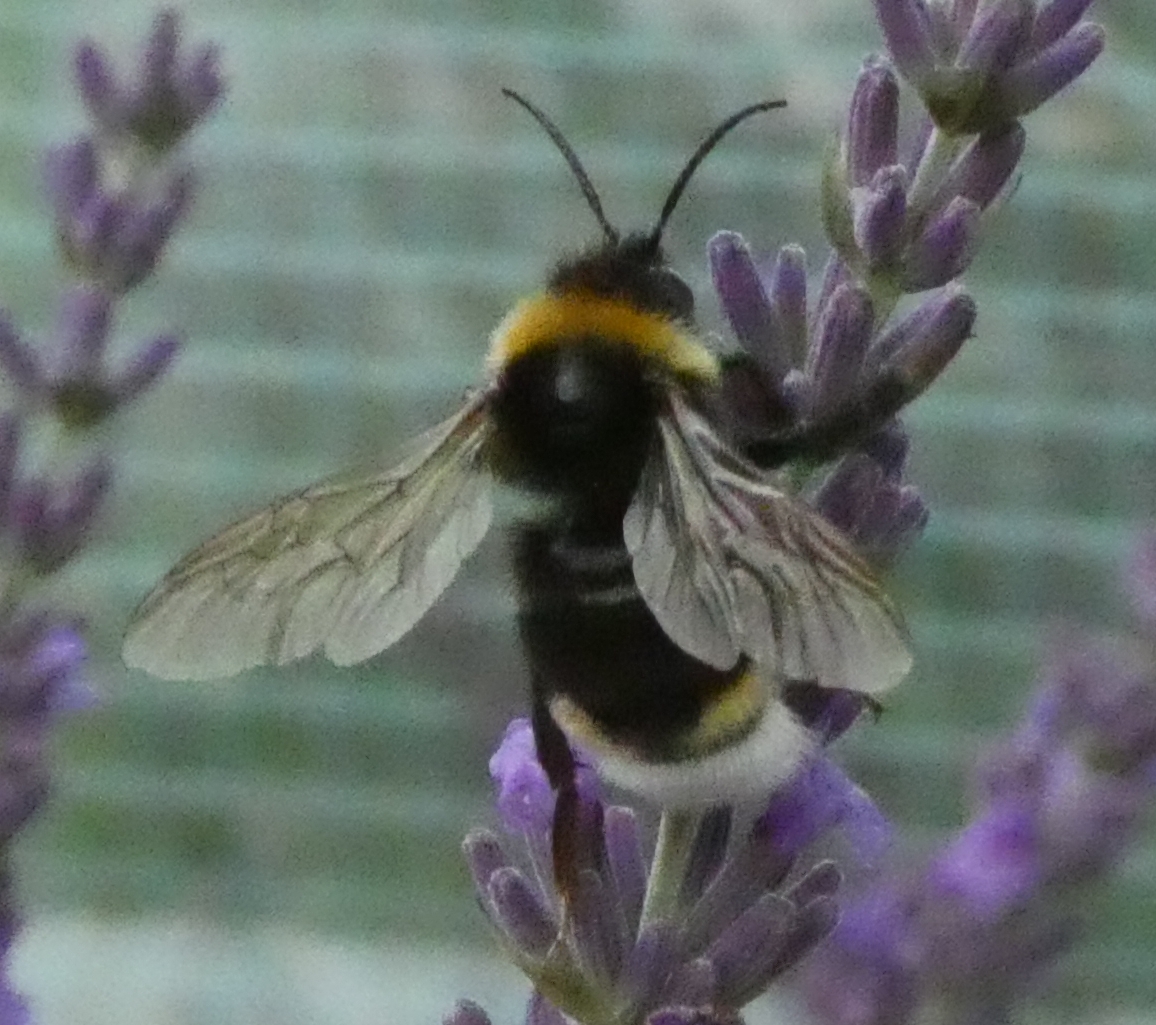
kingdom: Animalia
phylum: Arthropoda
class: Insecta
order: Hymenoptera
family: Apidae
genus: Bombus
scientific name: Bombus vestalis
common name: Vestal cuckoo bee
